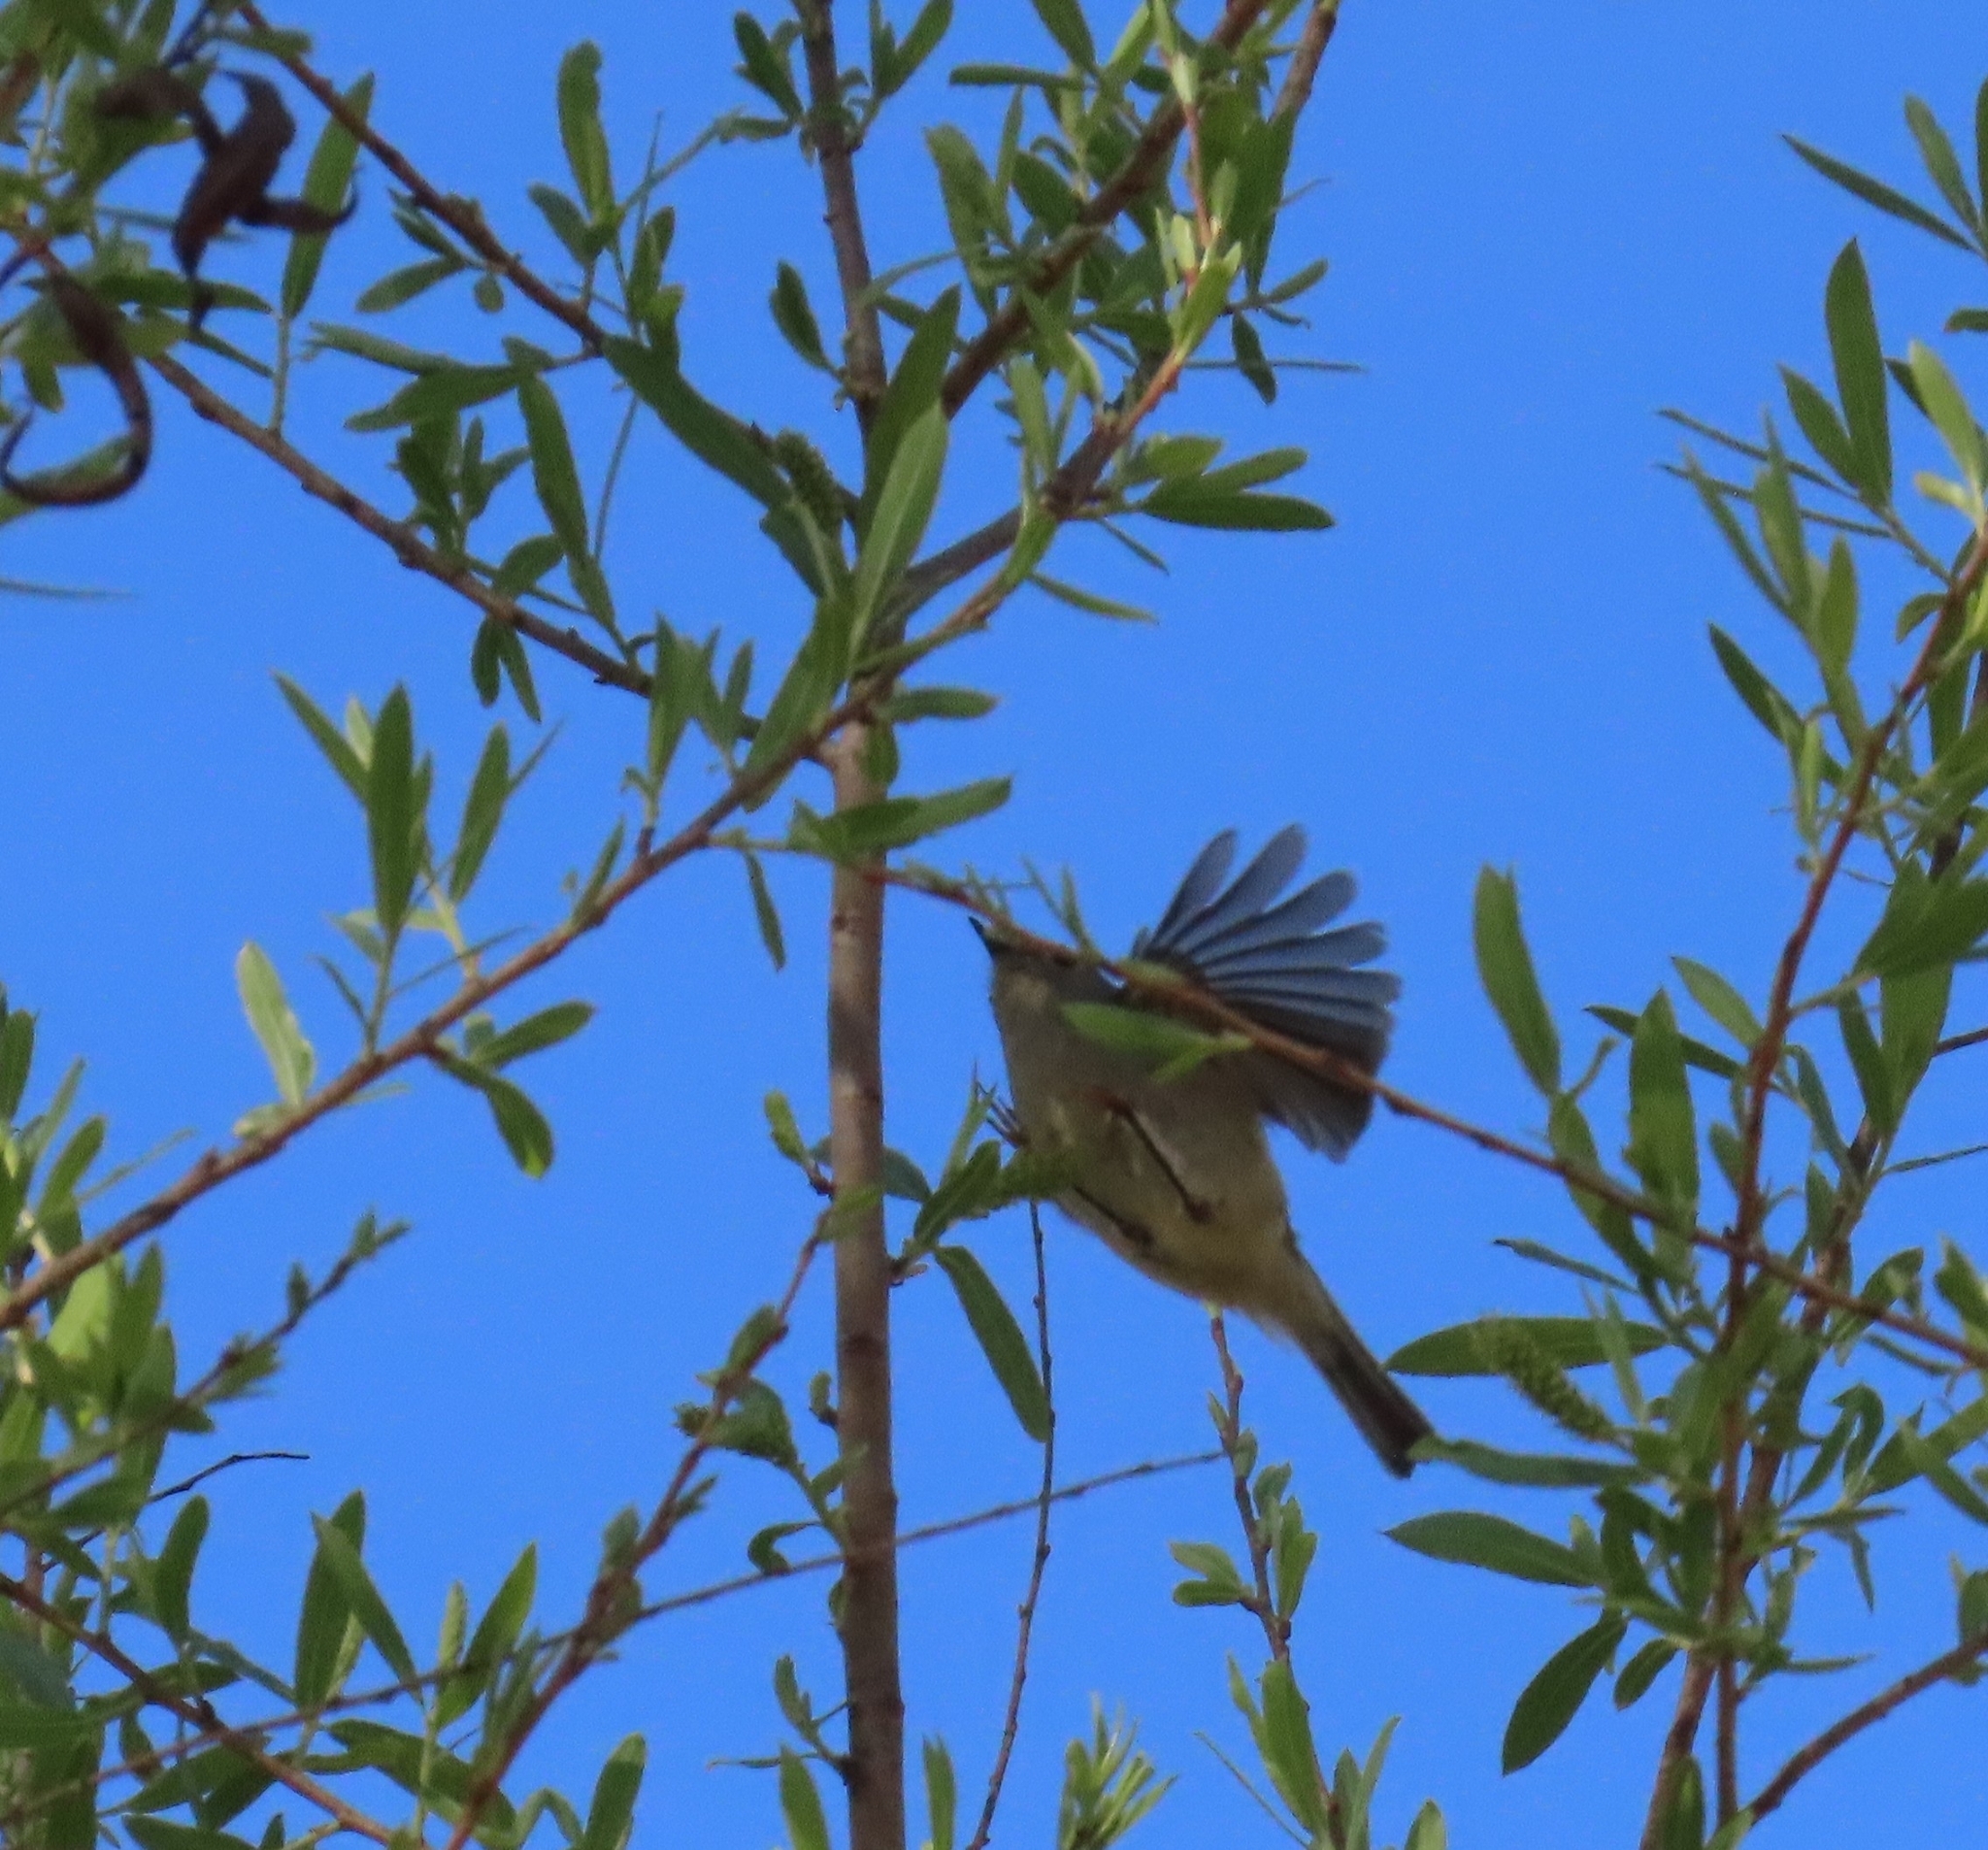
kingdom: Animalia
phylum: Chordata
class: Aves
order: Passeriformes
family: Regulidae
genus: Regulus
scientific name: Regulus calendula
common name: Ruby-crowned kinglet
